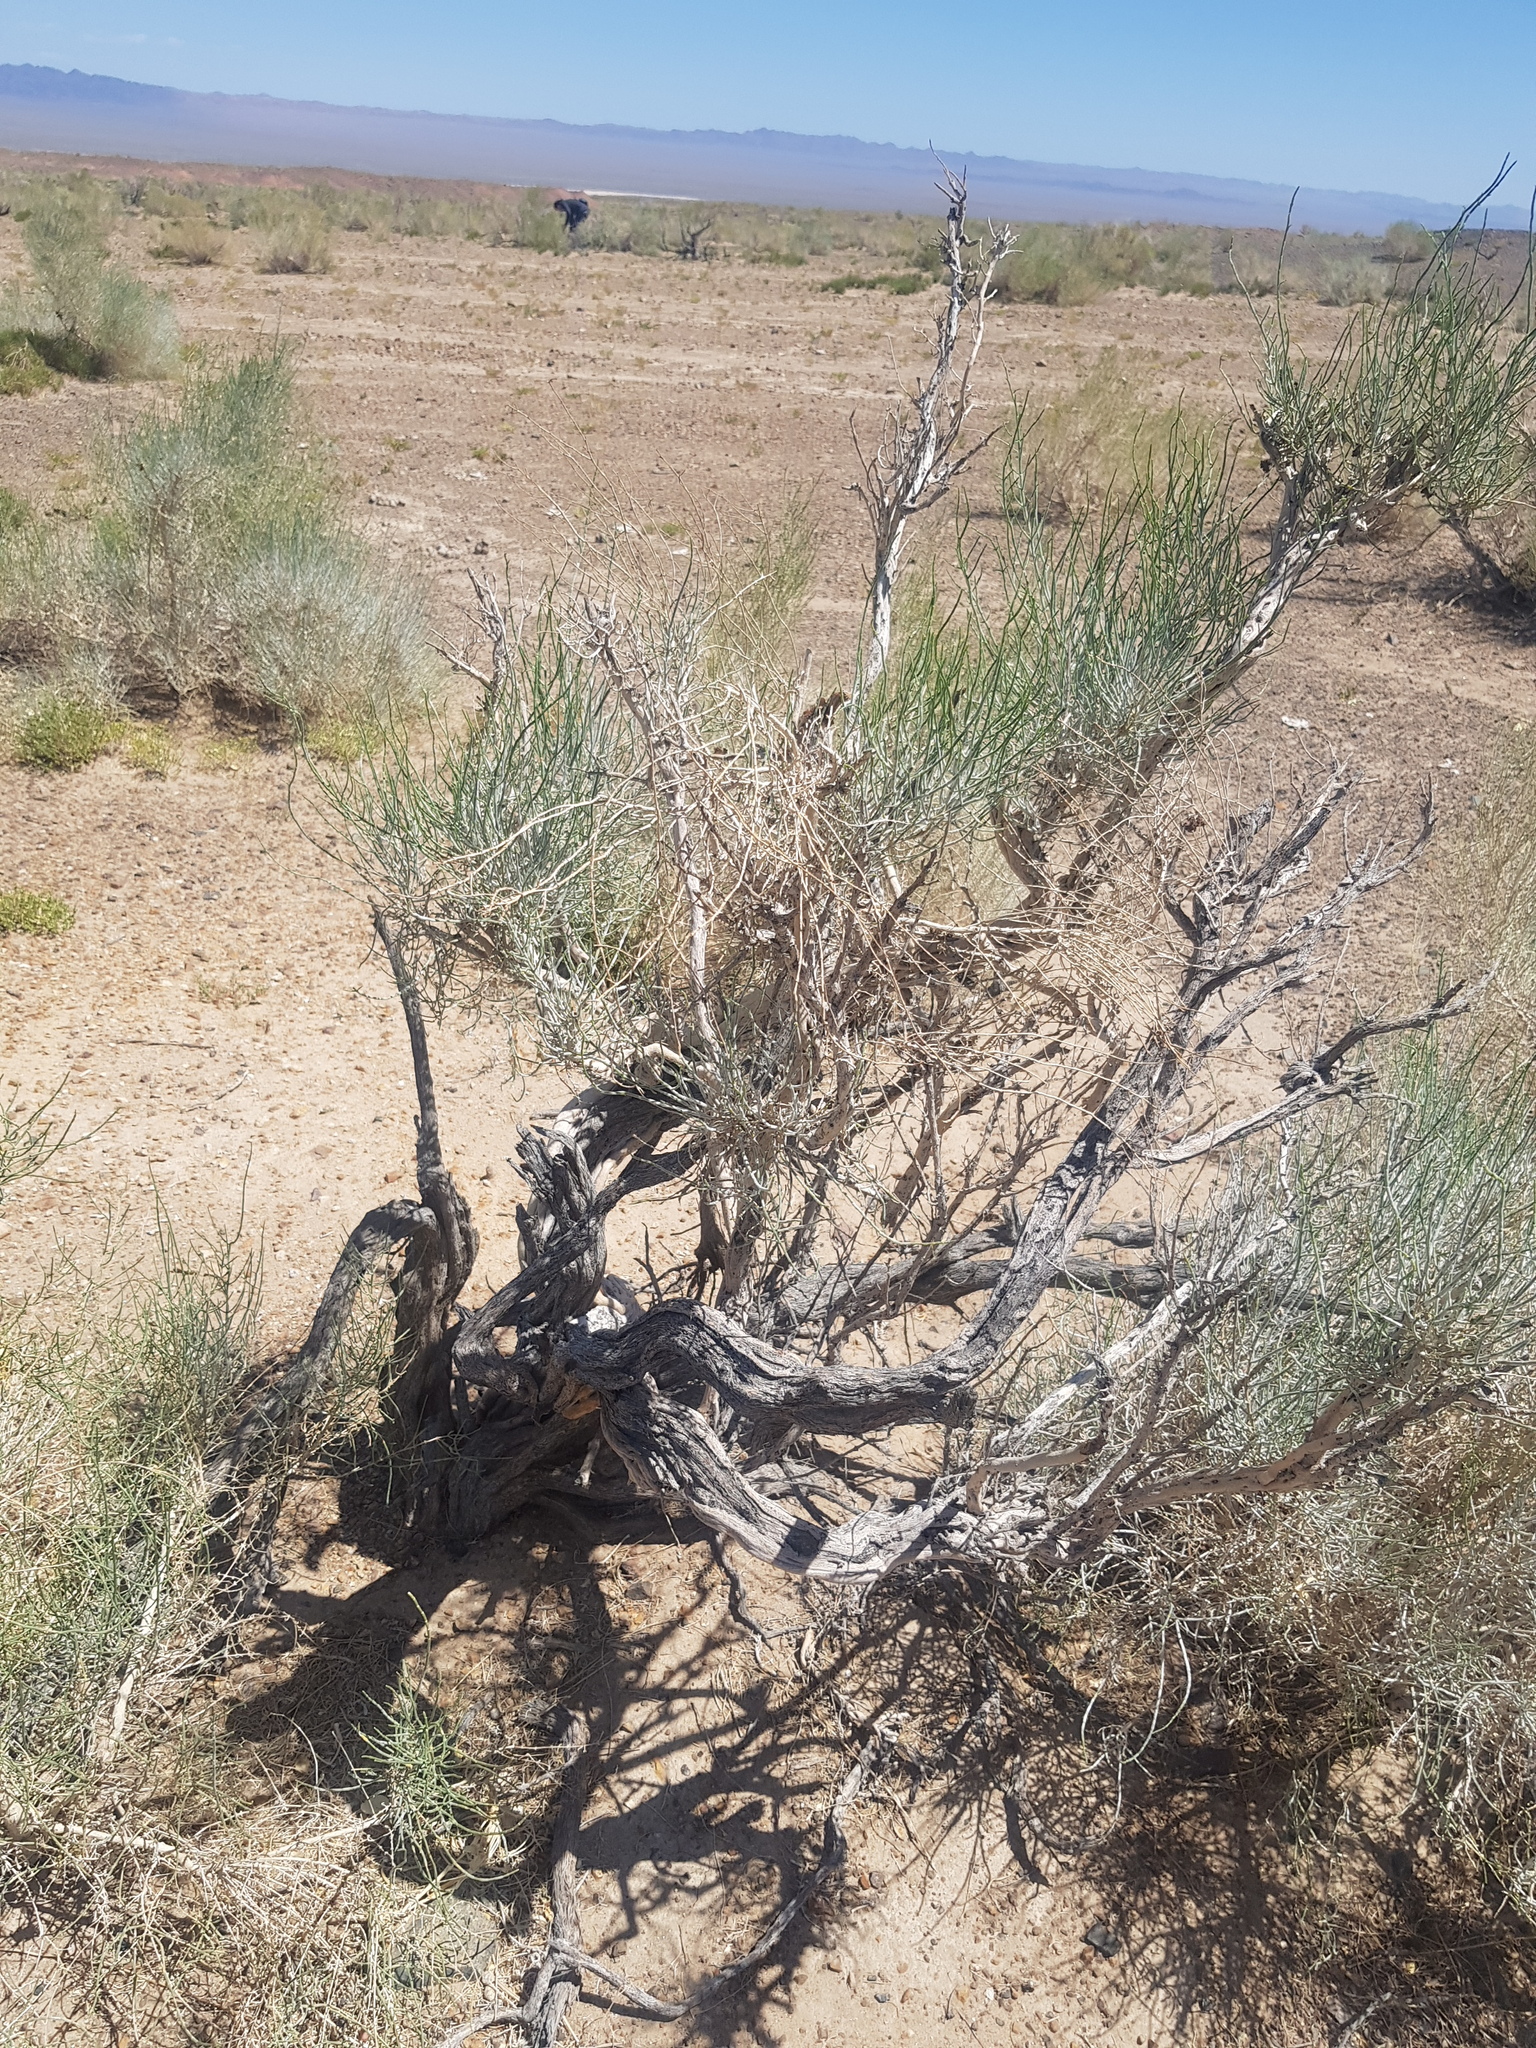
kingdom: Plantae
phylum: Tracheophyta
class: Magnoliopsida
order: Caryophyllales
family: Amaranthaceae
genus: Haloxylon
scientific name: Haloxylon ammodendron
